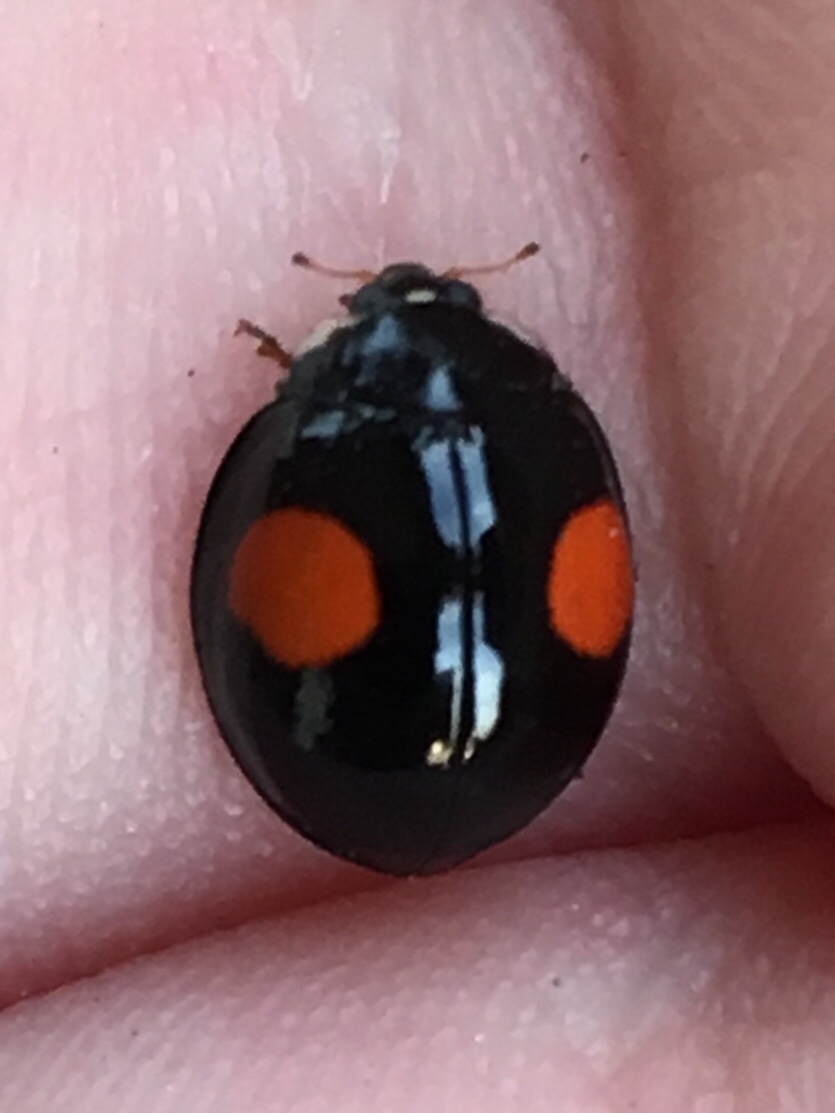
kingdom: Animalia
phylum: Arthropoda
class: Insecta
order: Coleoptera
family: Coccinellidae
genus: Harmonia
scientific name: Harmonia axyridis
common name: Harlequin ladybird
